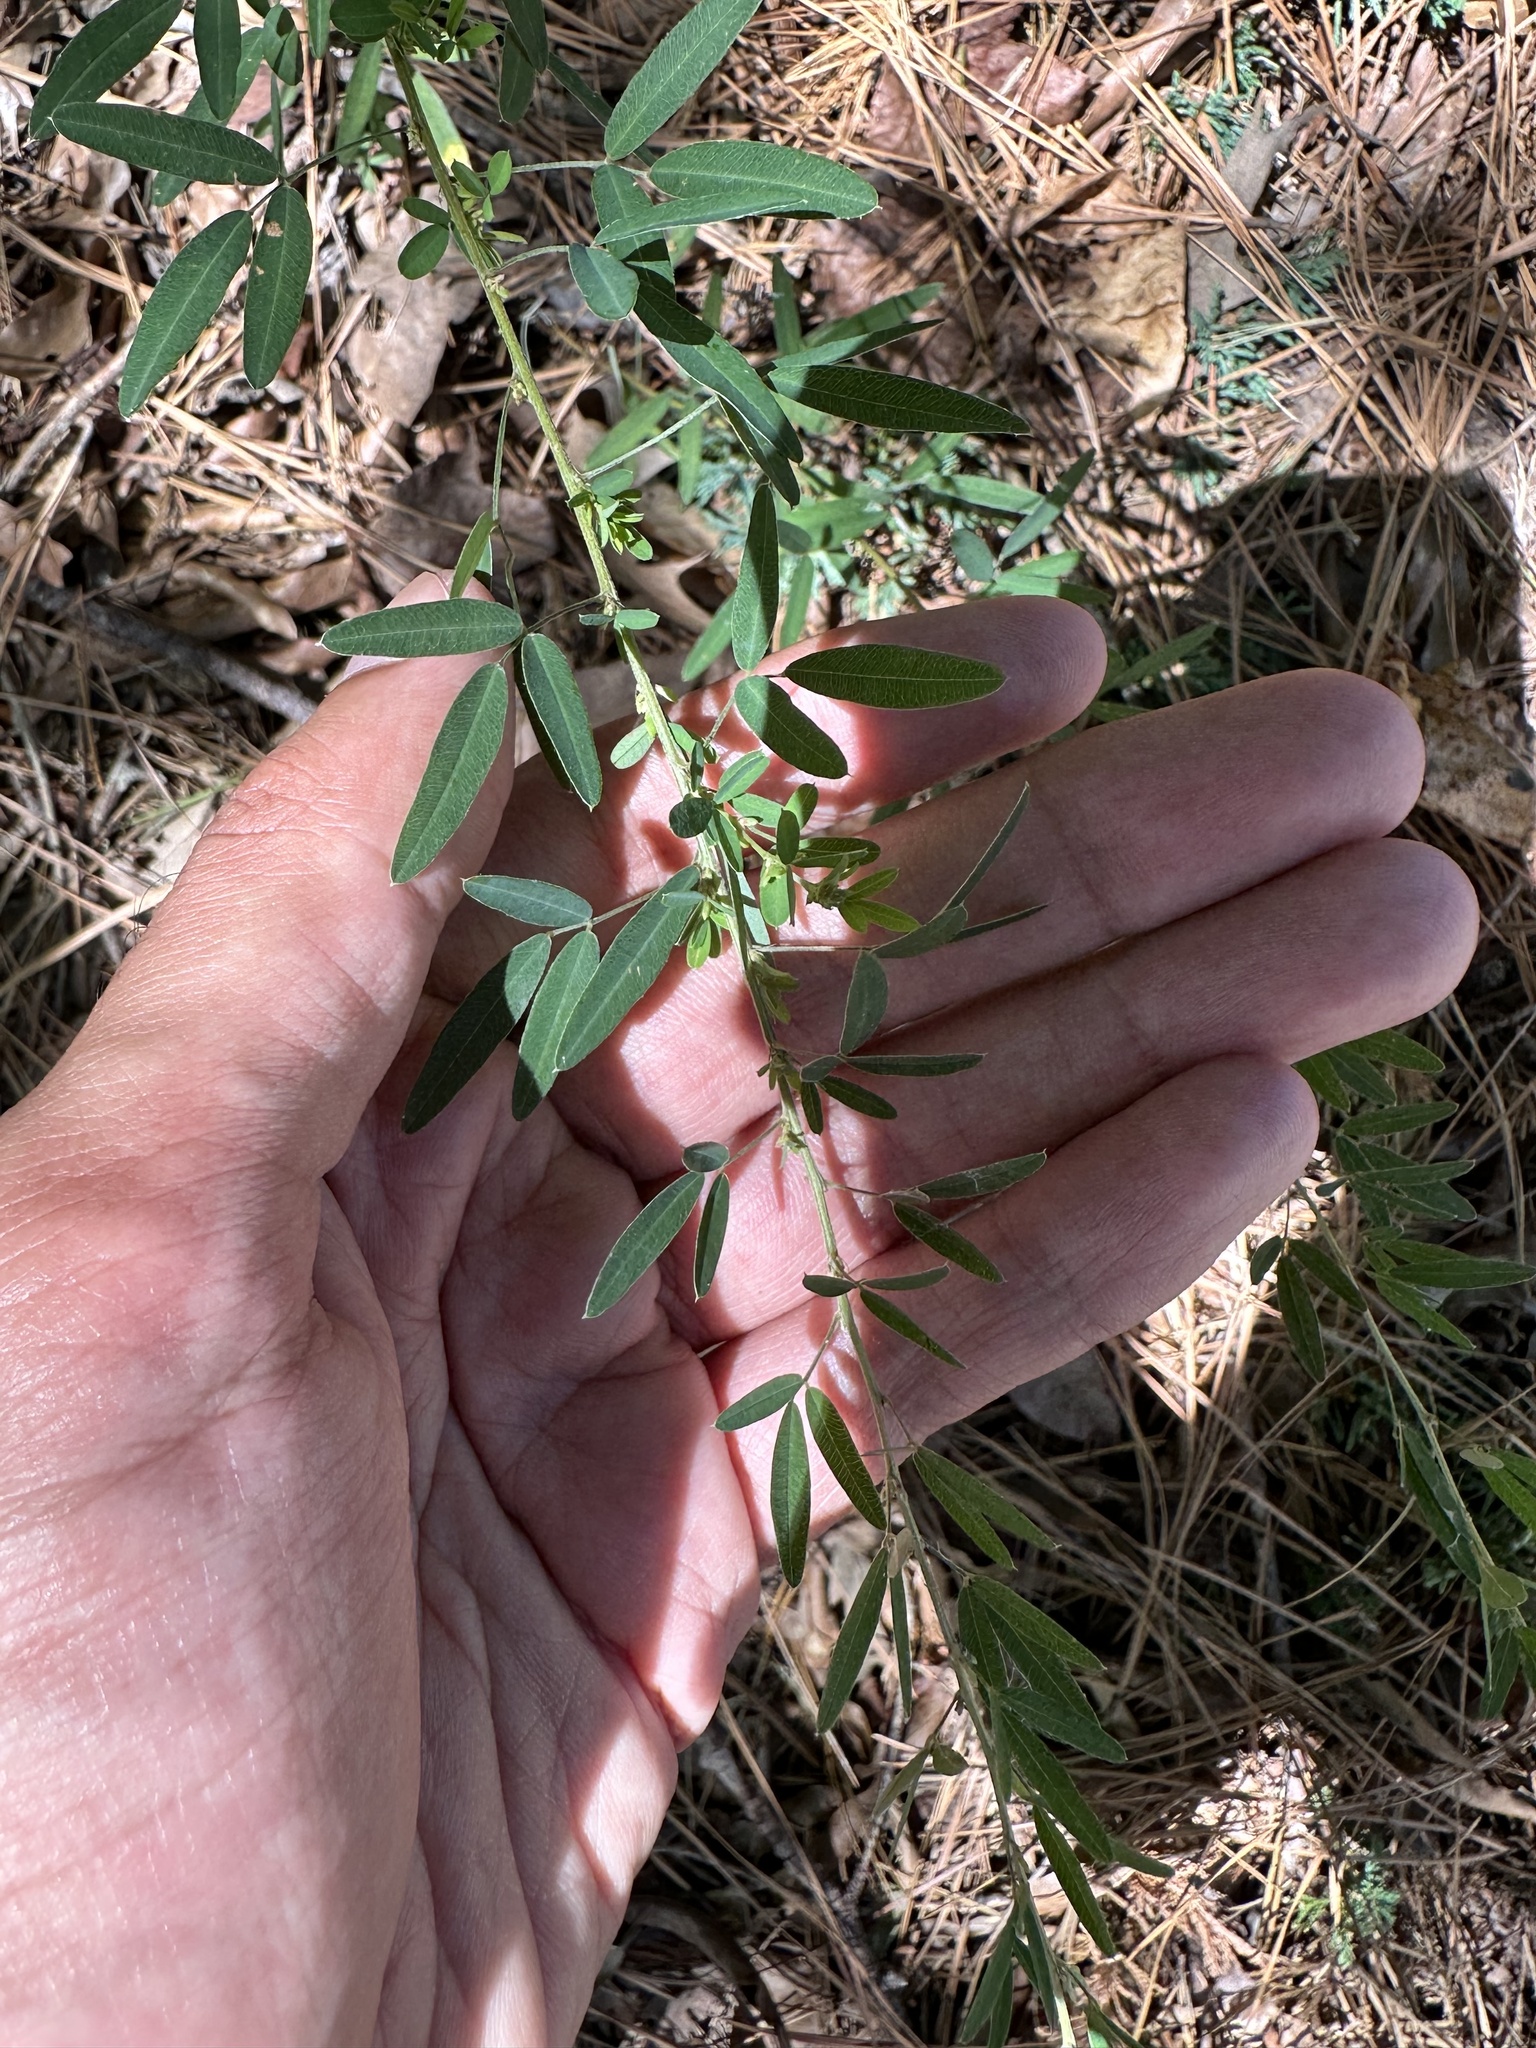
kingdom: Plantae
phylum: Tracheophyta
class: Magnoliopsida
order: Fabales
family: Fabaceae
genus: Lespedeza
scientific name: Lespedeza virginica
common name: Slender bush-clover
